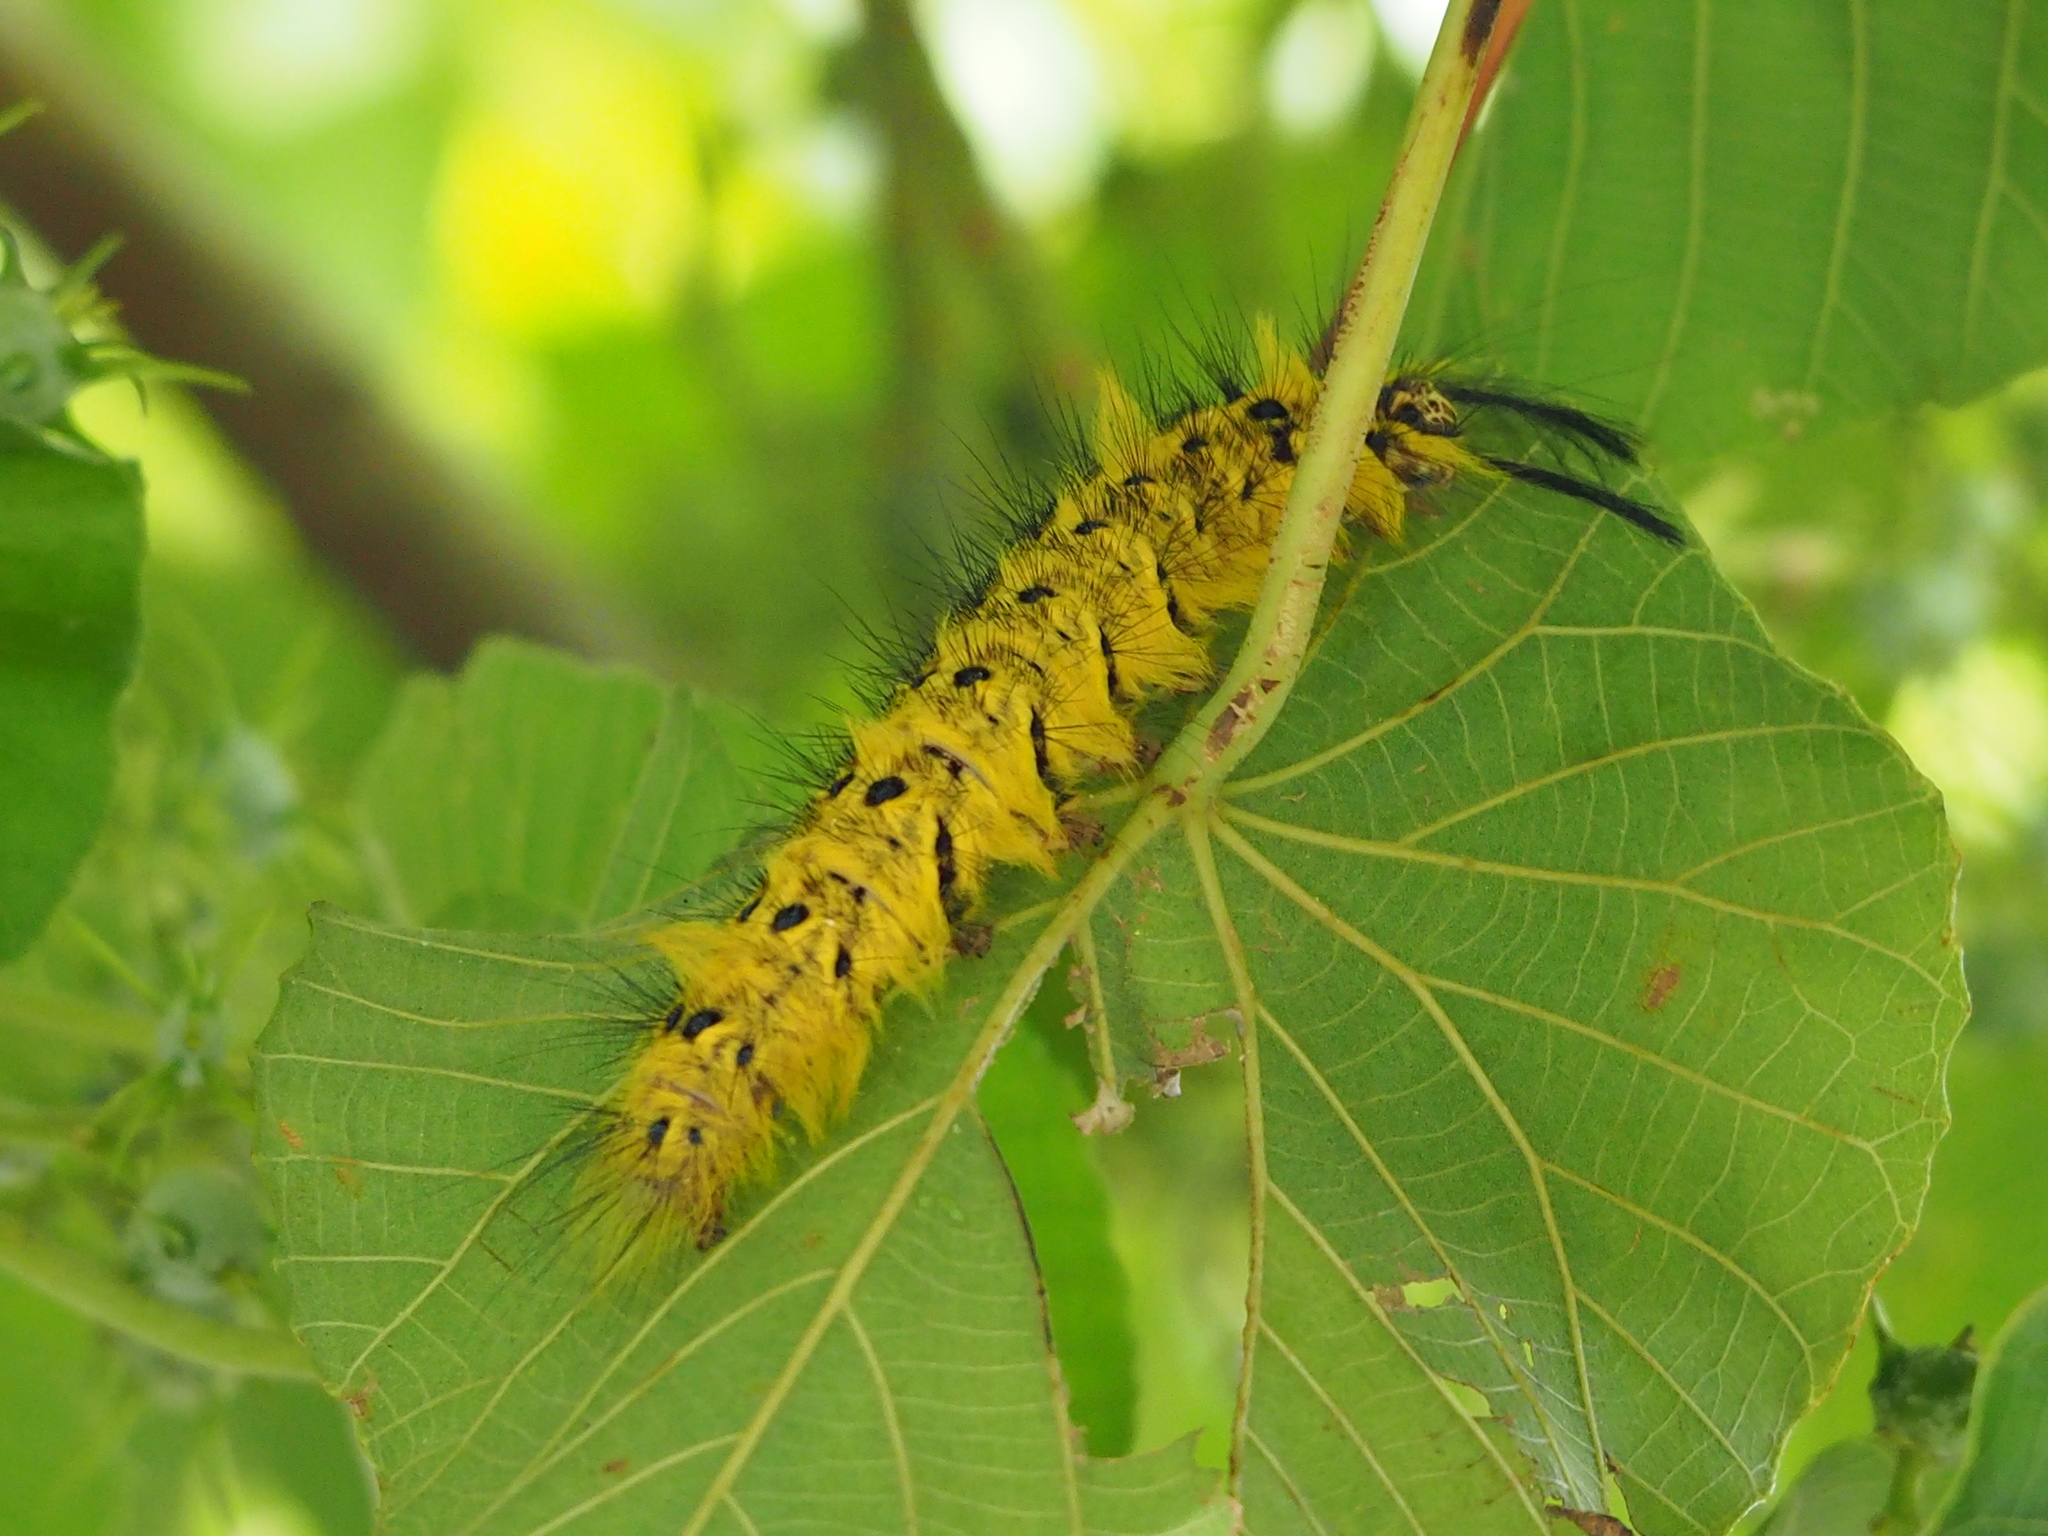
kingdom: Animalia
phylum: Arthropoda
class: Insecta
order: Lepidoptera
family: Lasiocampidae
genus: Trabala
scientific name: Trabala vishnou
